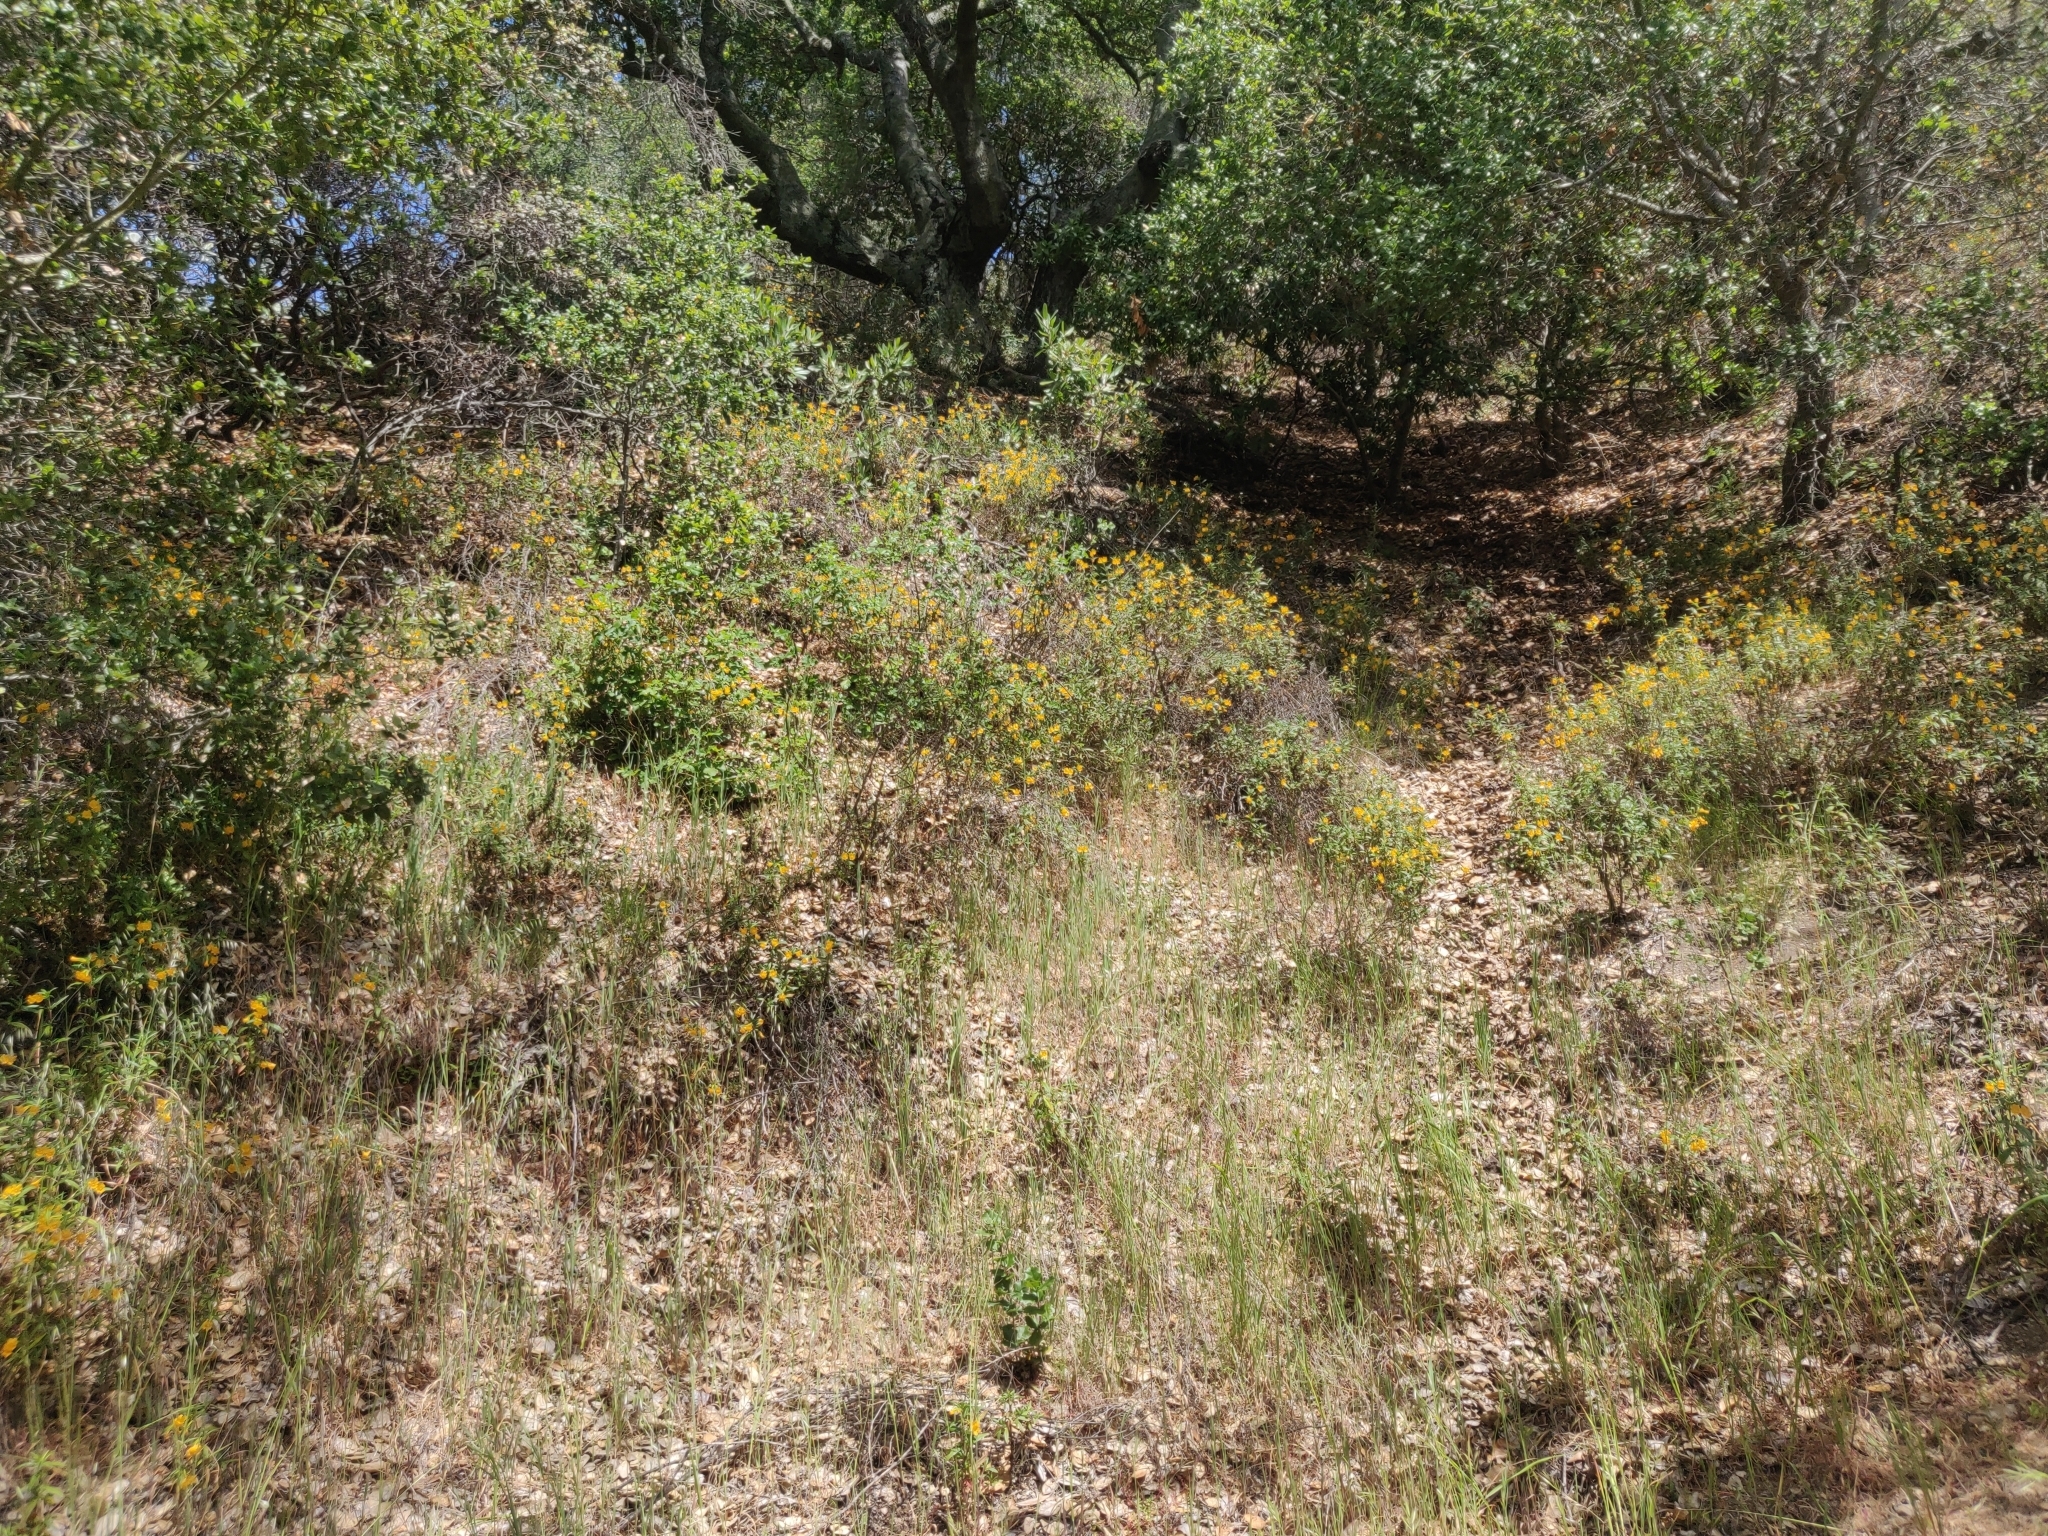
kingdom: Plantae
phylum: Tracheophyta
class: Magnoliopsida
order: Lamiales
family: Phrymaceae
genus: Diplacus
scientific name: Diplacus aurantiacus
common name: Bush monkey-flower
